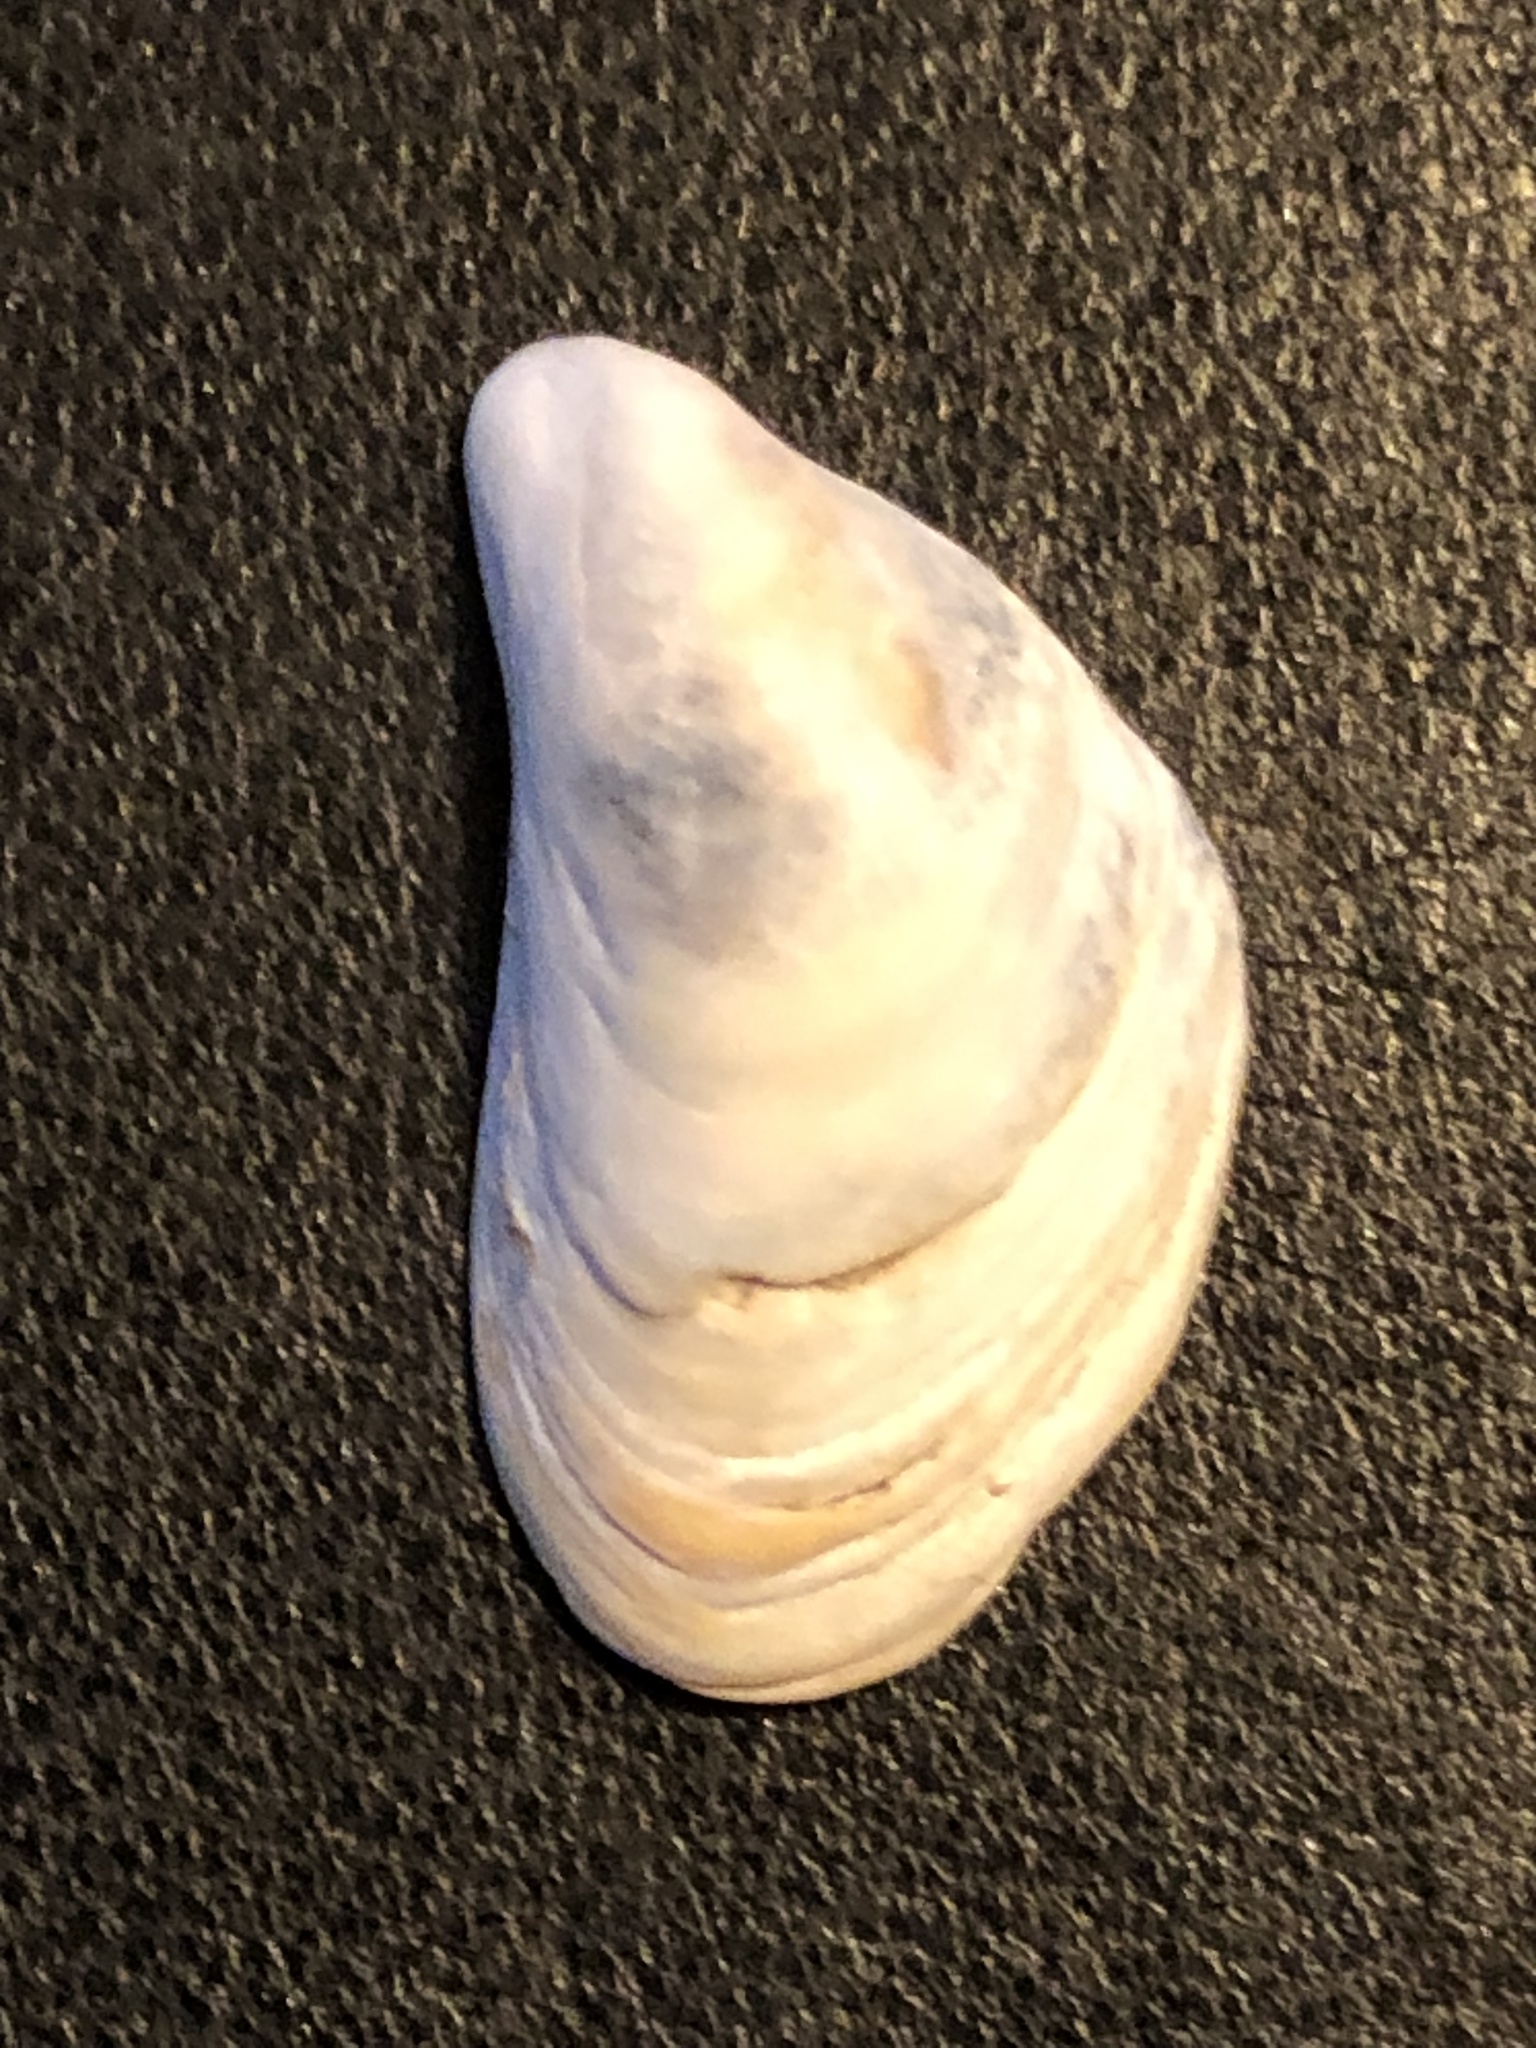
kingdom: Animalia
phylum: Mollusca
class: Bivalvia
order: Myida
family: Dreissenidae
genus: Dreissena
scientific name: Dreissena bugensis
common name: Quagga mussel
